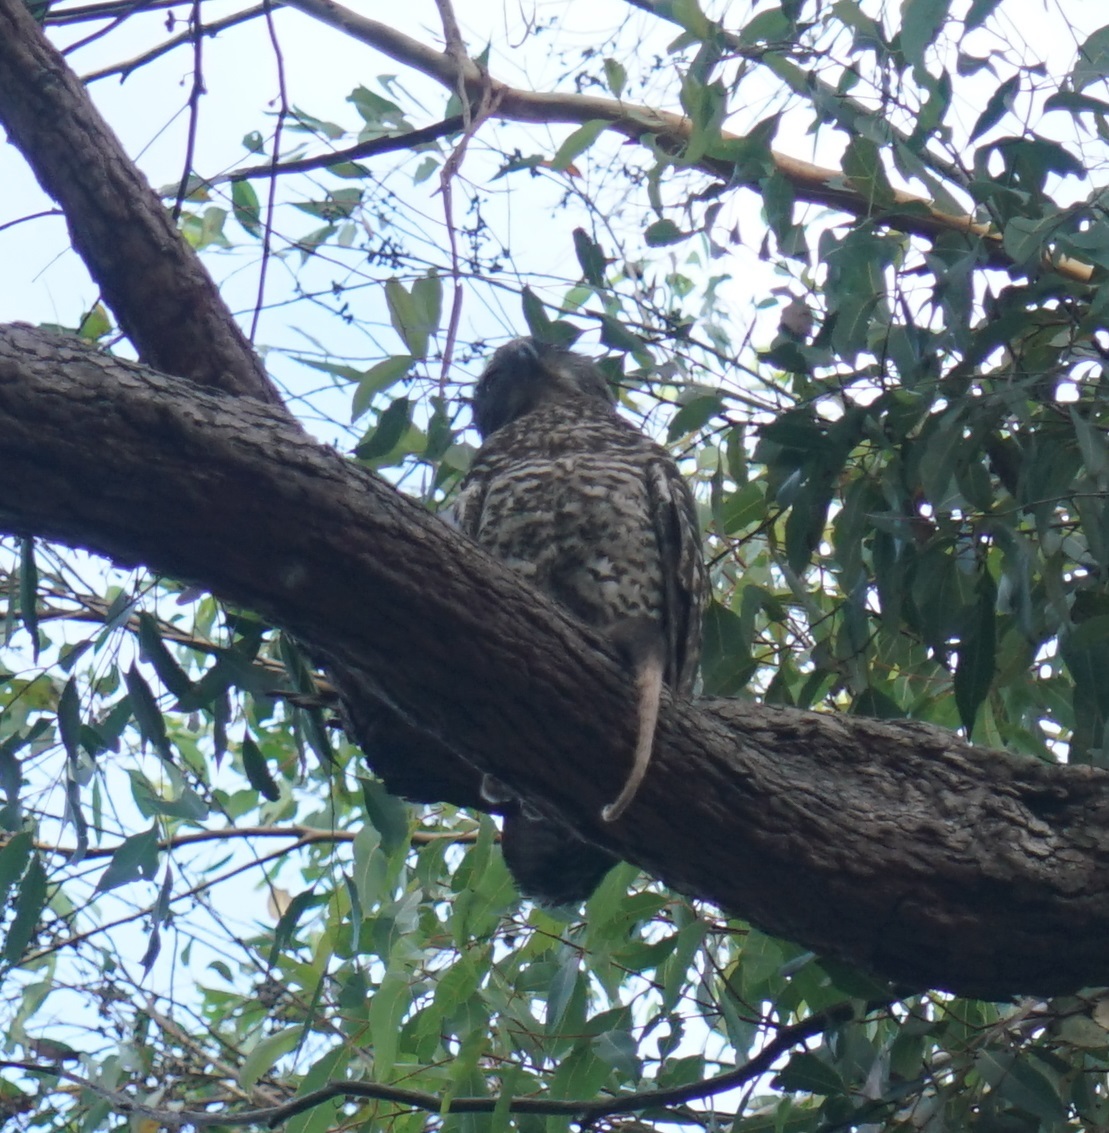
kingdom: Animalia
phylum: Chordata
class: Mammalia
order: Diprotodontia
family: Pseudocheiridae
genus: Pseudocheirus
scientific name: Pseudocheirus peregrinus
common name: Common ringtail possum
